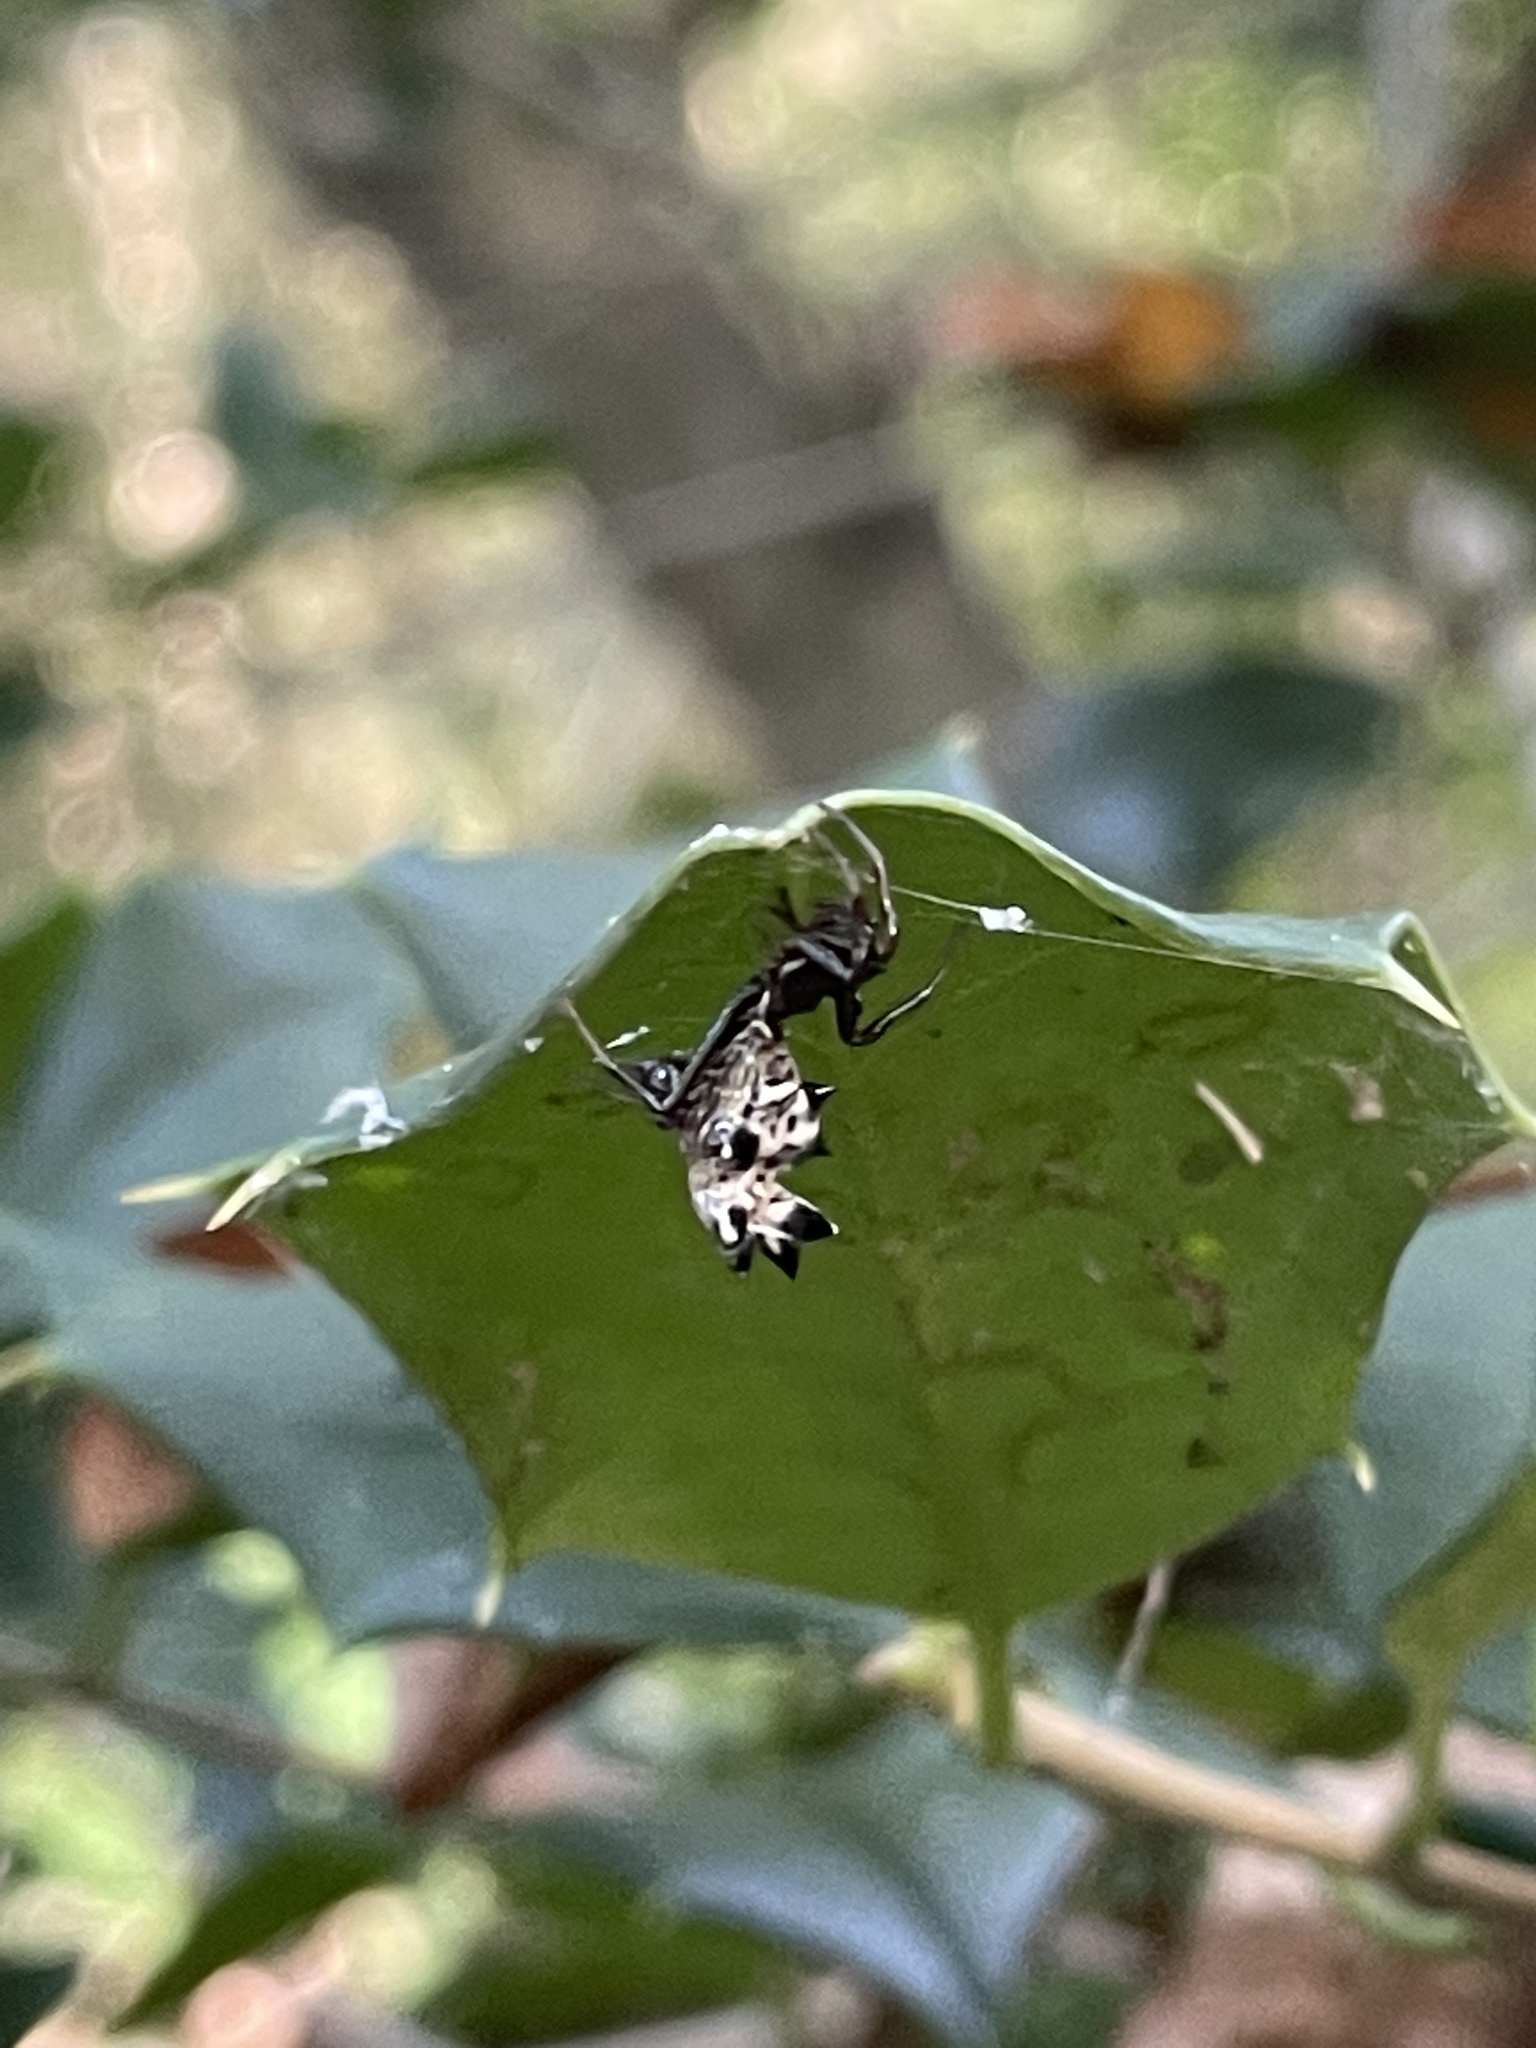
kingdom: Animalia
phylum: Arthropoda
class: Arachnida
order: Araneae
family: Araneidae
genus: Micrathena
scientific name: Micrathena gracilis
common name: Orb weavers
